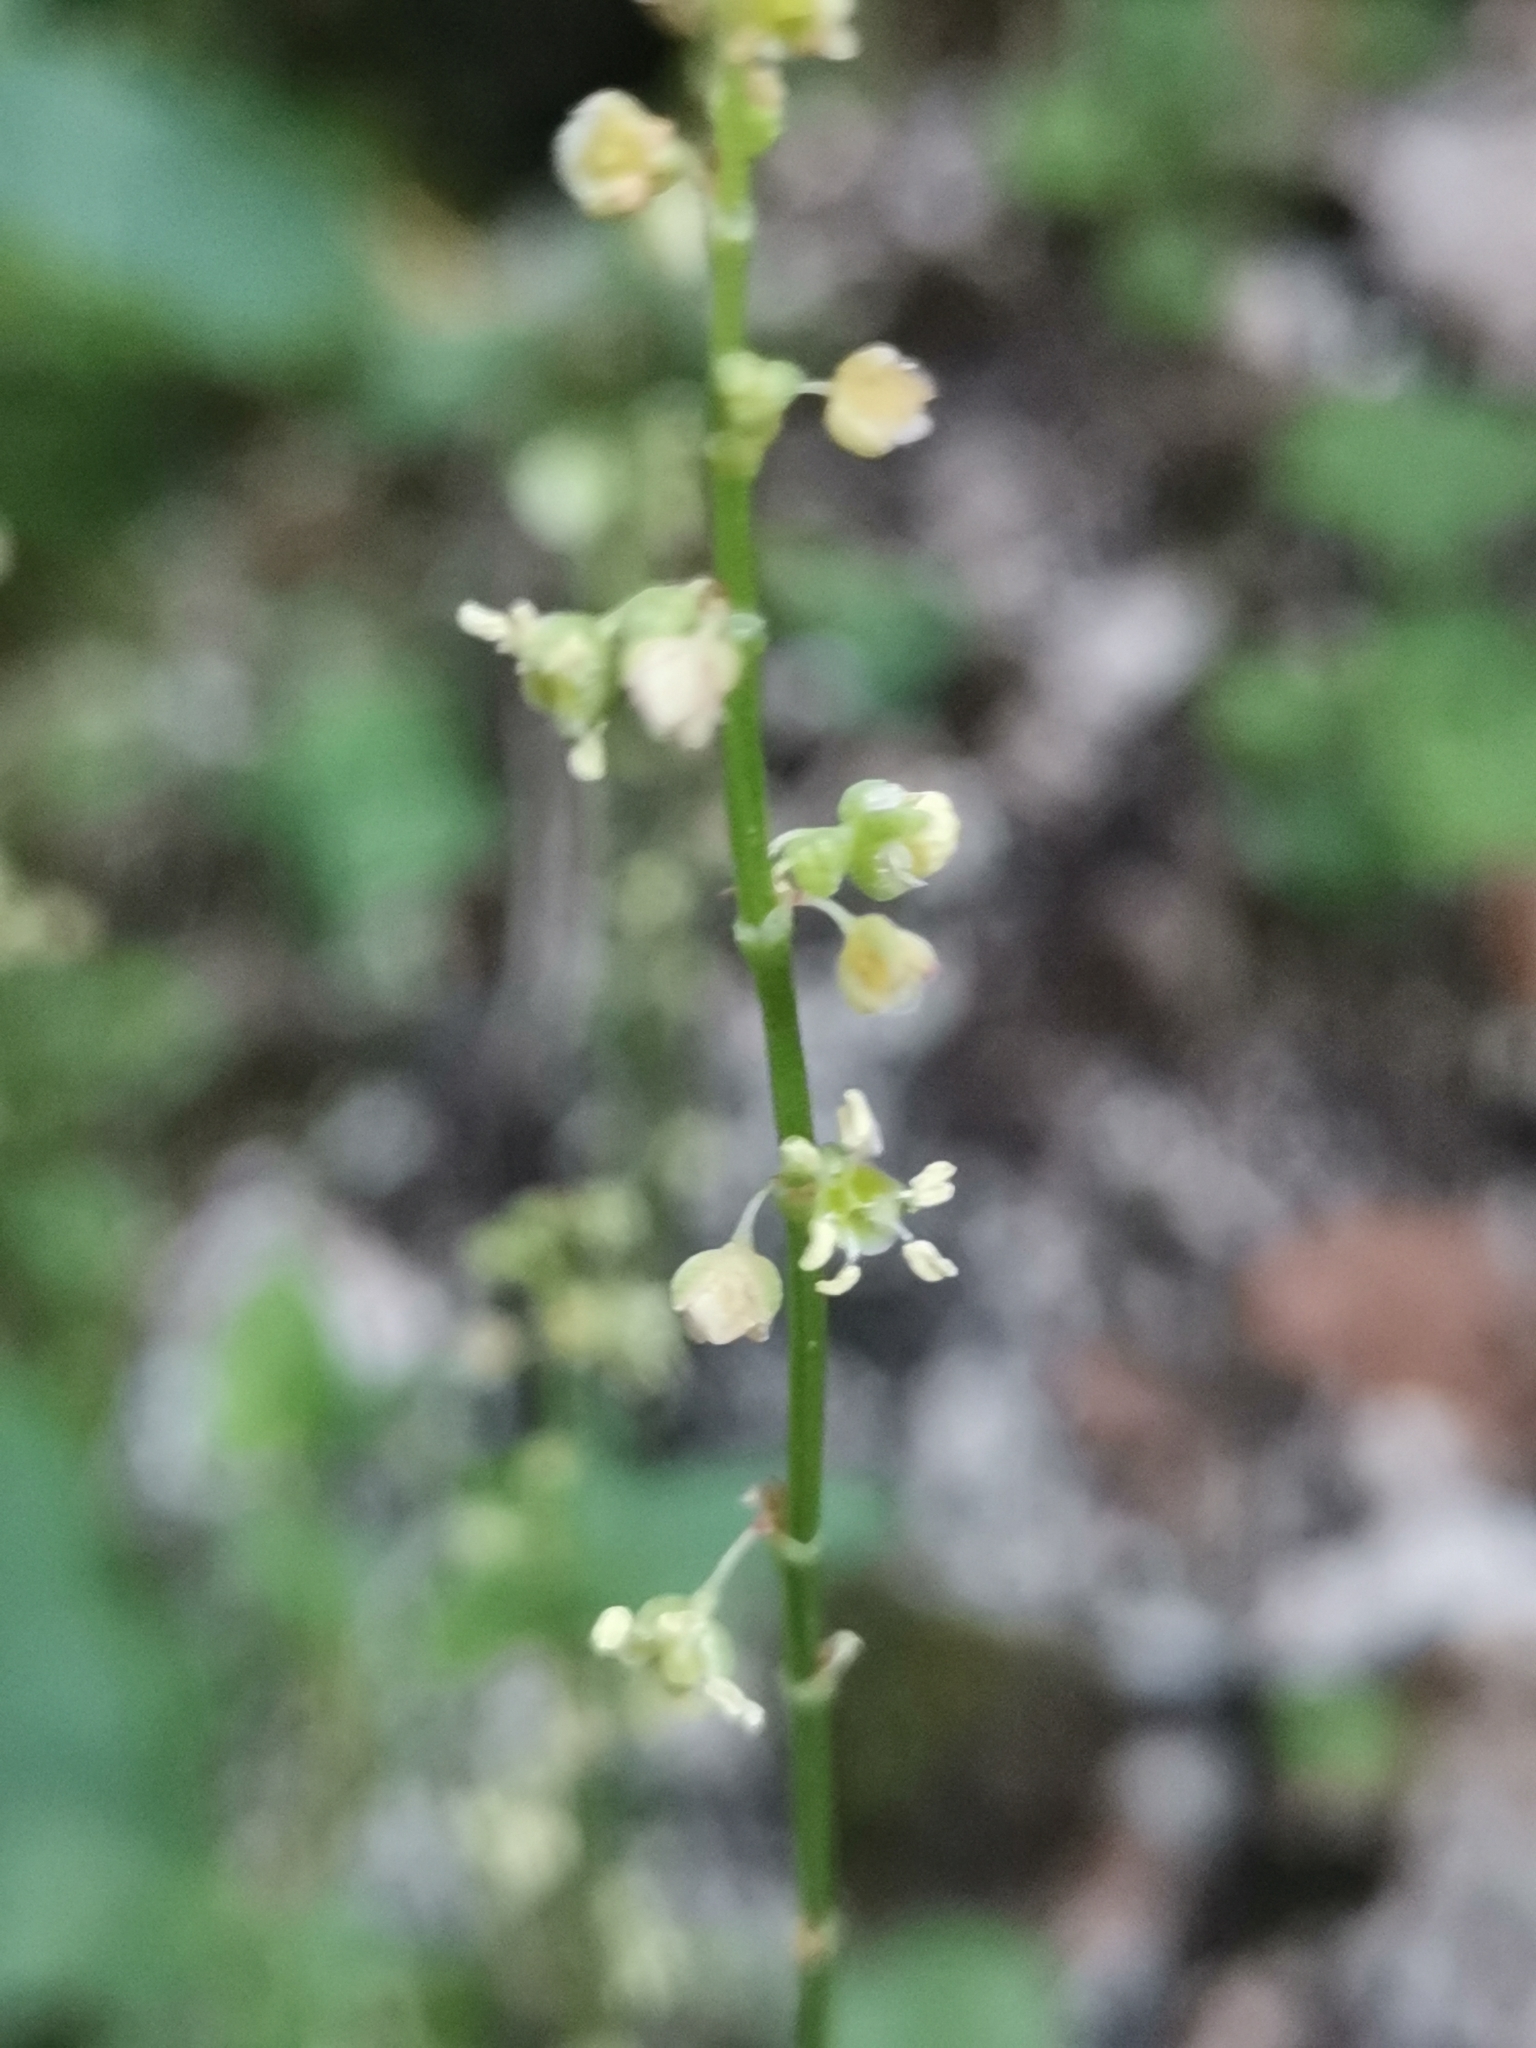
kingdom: Plantae
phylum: Tracheophyta
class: Magnoliopsida
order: Caryophyllales
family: Polygonaceae
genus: Rumex
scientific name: Rumex scutatus
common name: French sorrel
